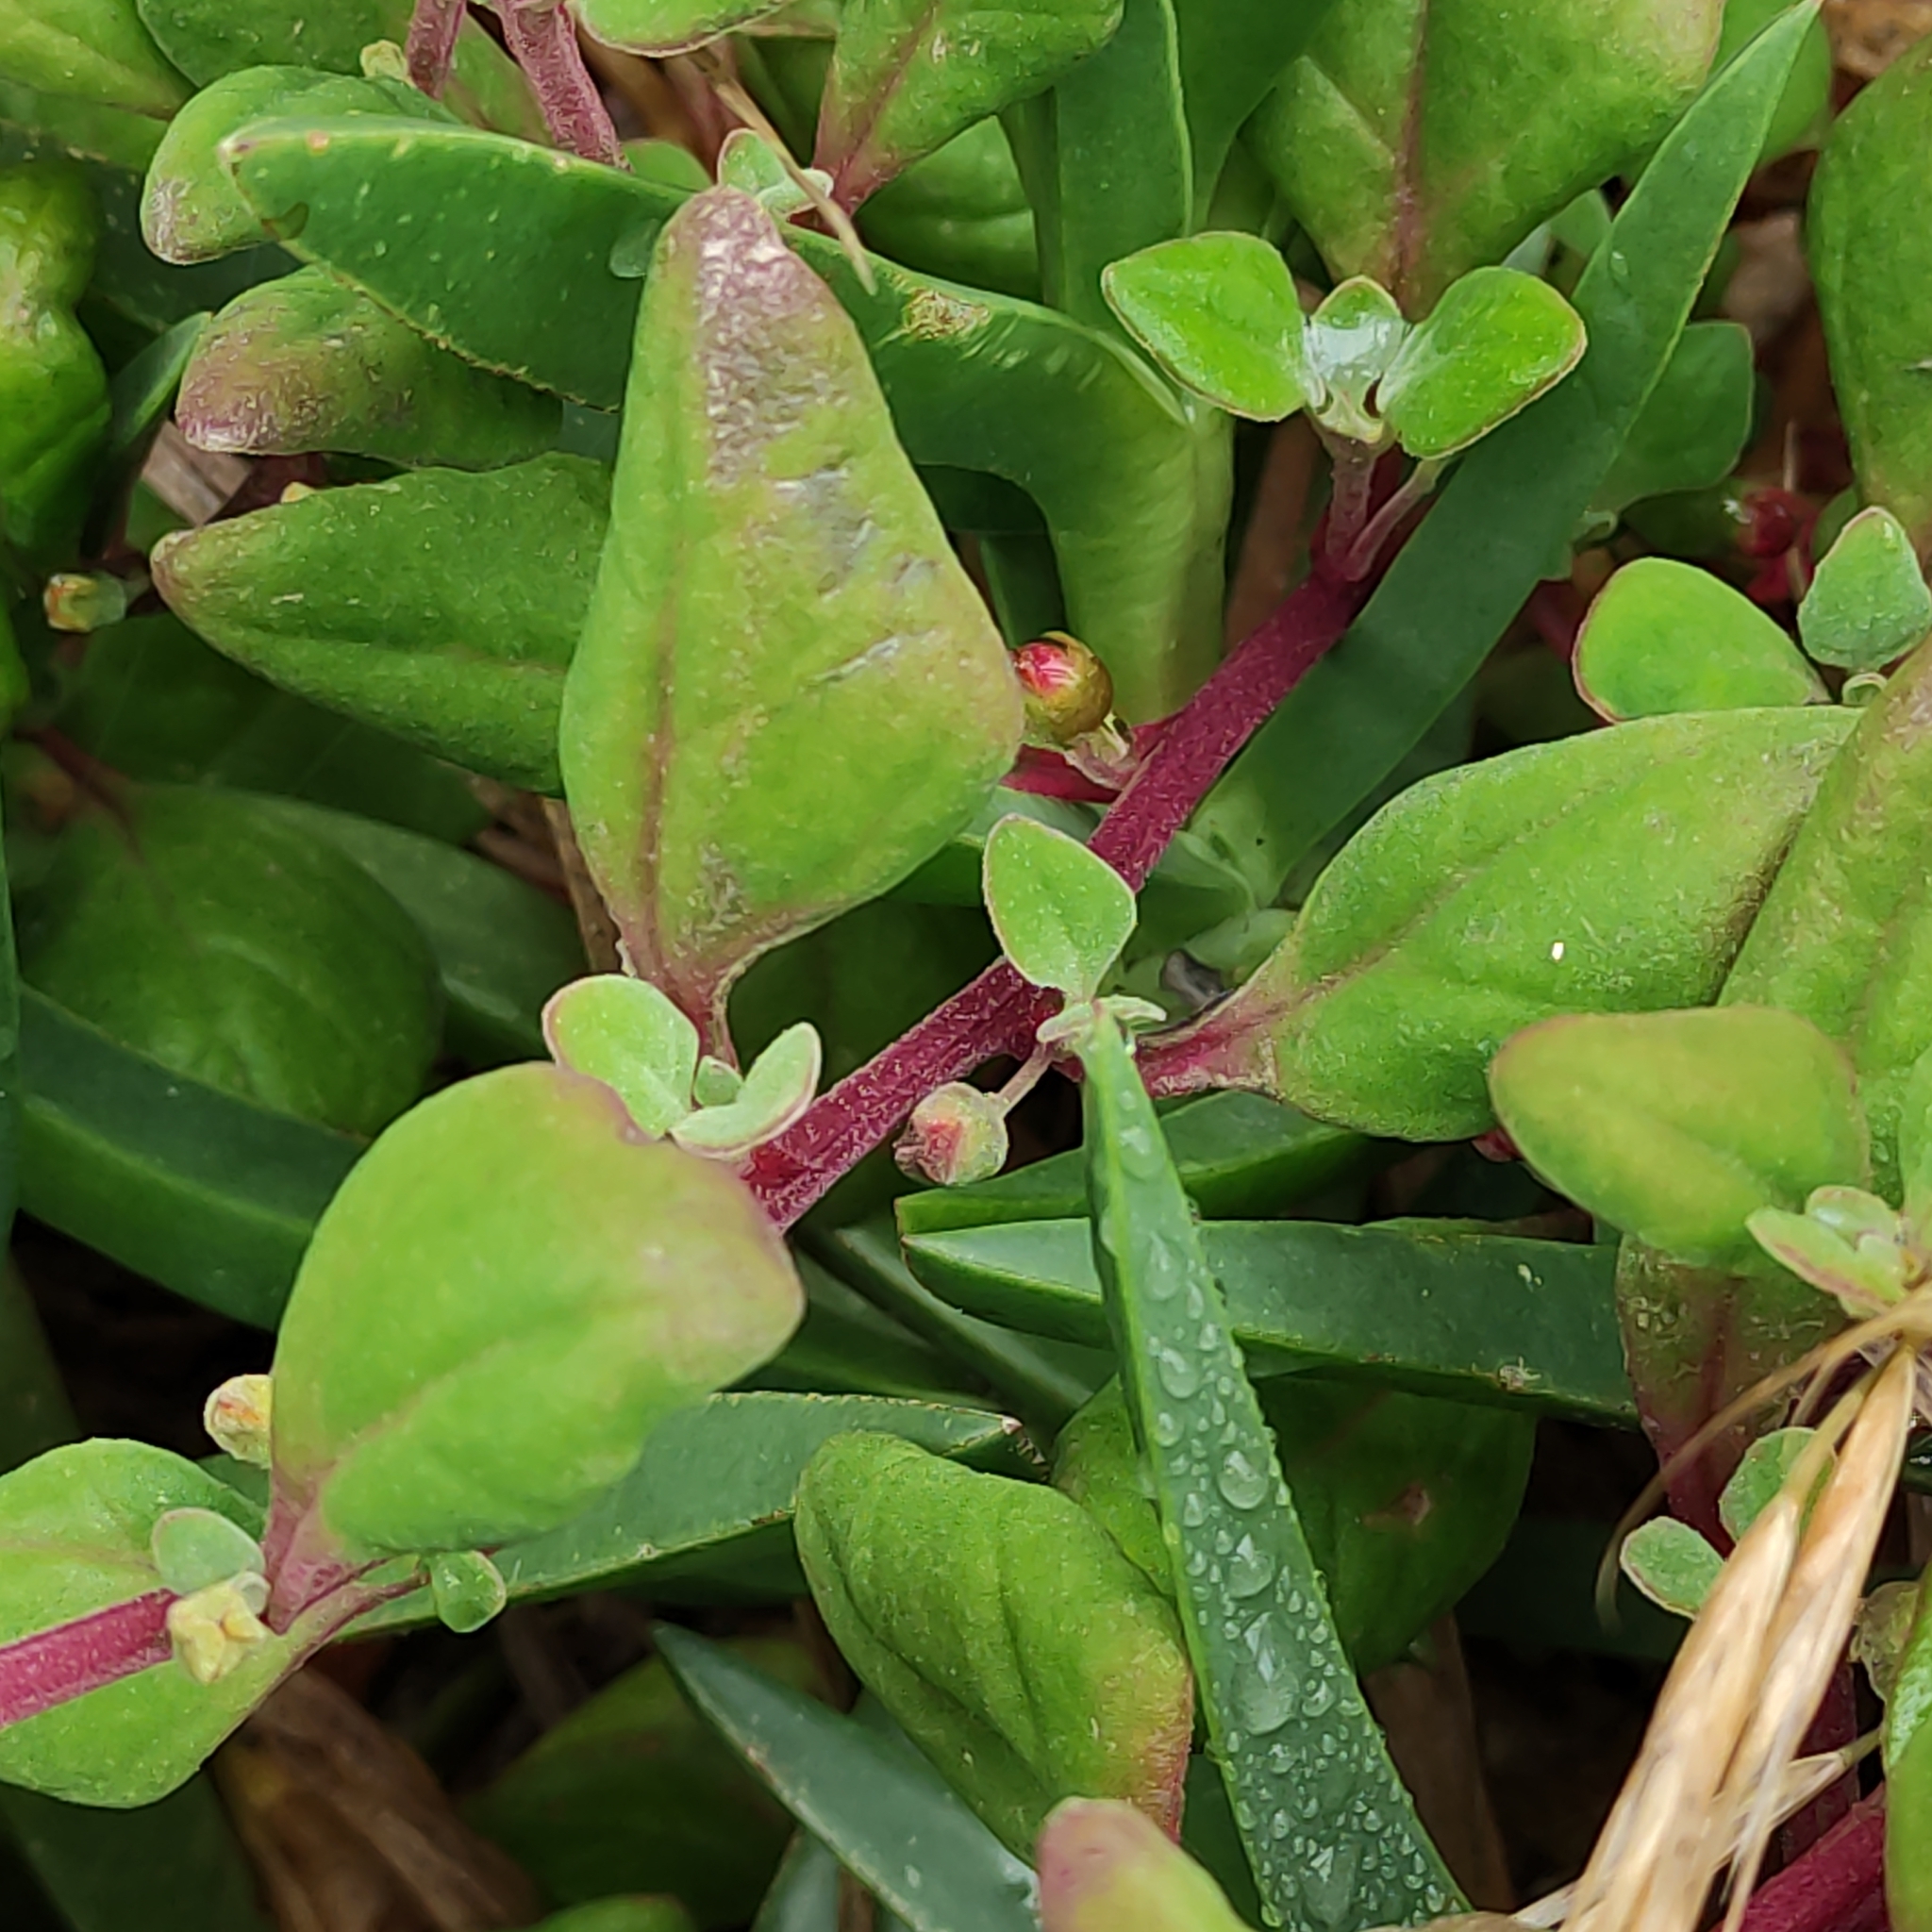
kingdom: Plantae
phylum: Tracheophyta
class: Magnoliopsida
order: Caryophyllales
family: Aizoaceae
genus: Tetragonia
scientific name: Tetragonia implexicoma
